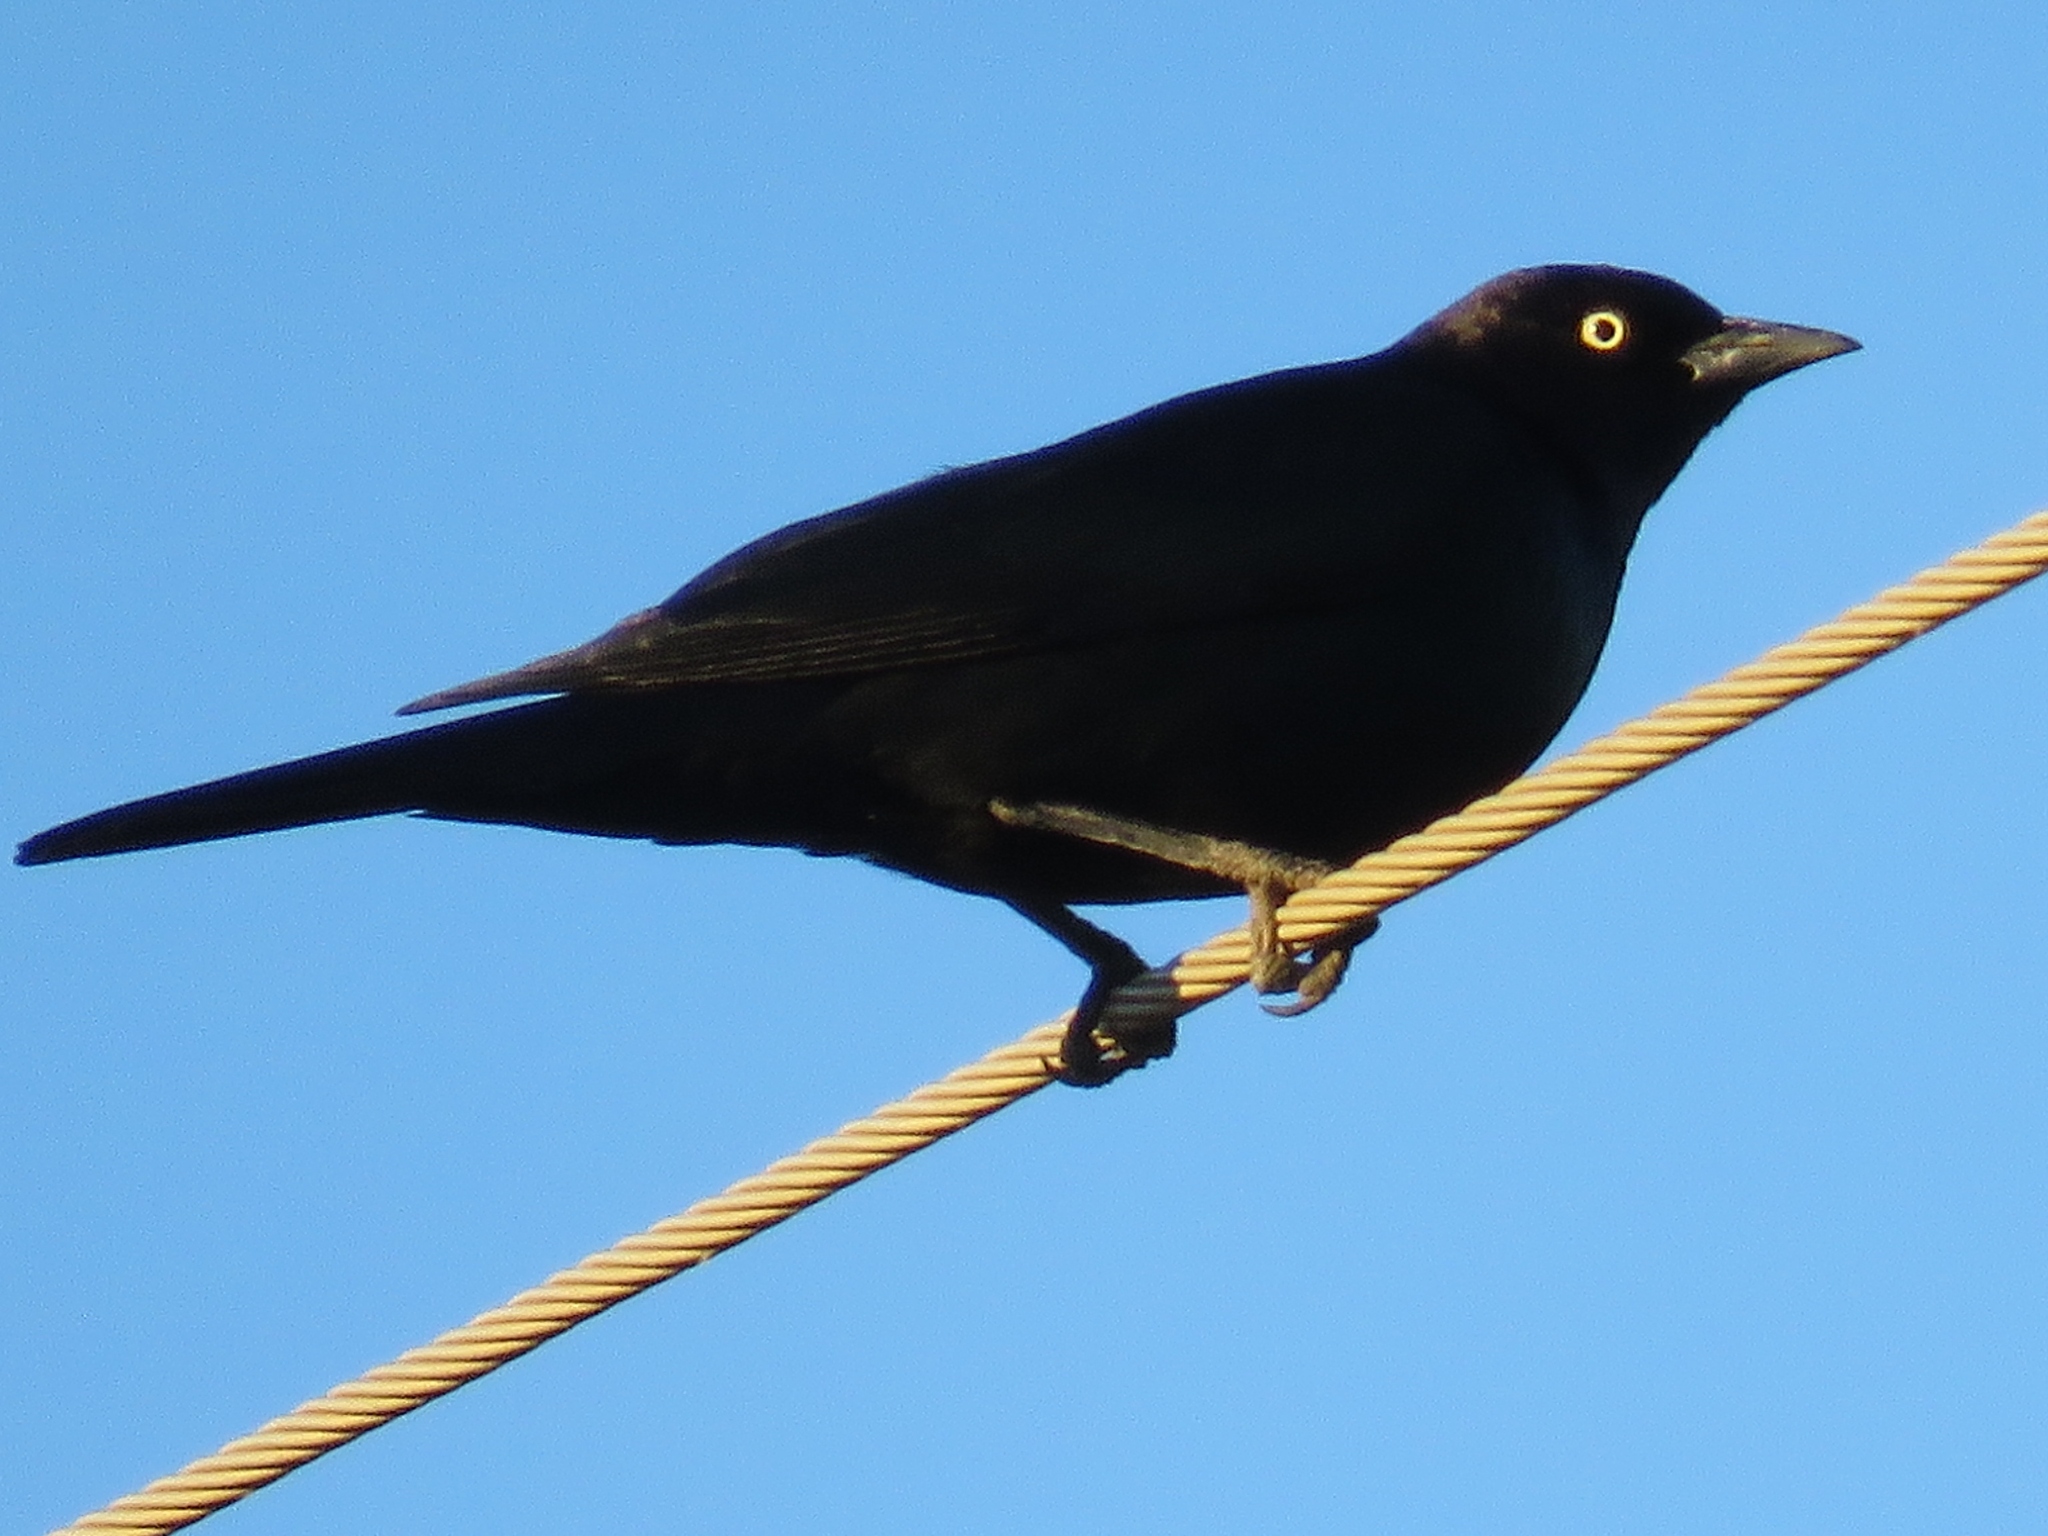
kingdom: Animalia
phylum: Chordata
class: Aves
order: Passeriformes
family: Icteridae
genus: Euphagus
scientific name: Euphagus cyanocephalus
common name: Brewer's blackbird
